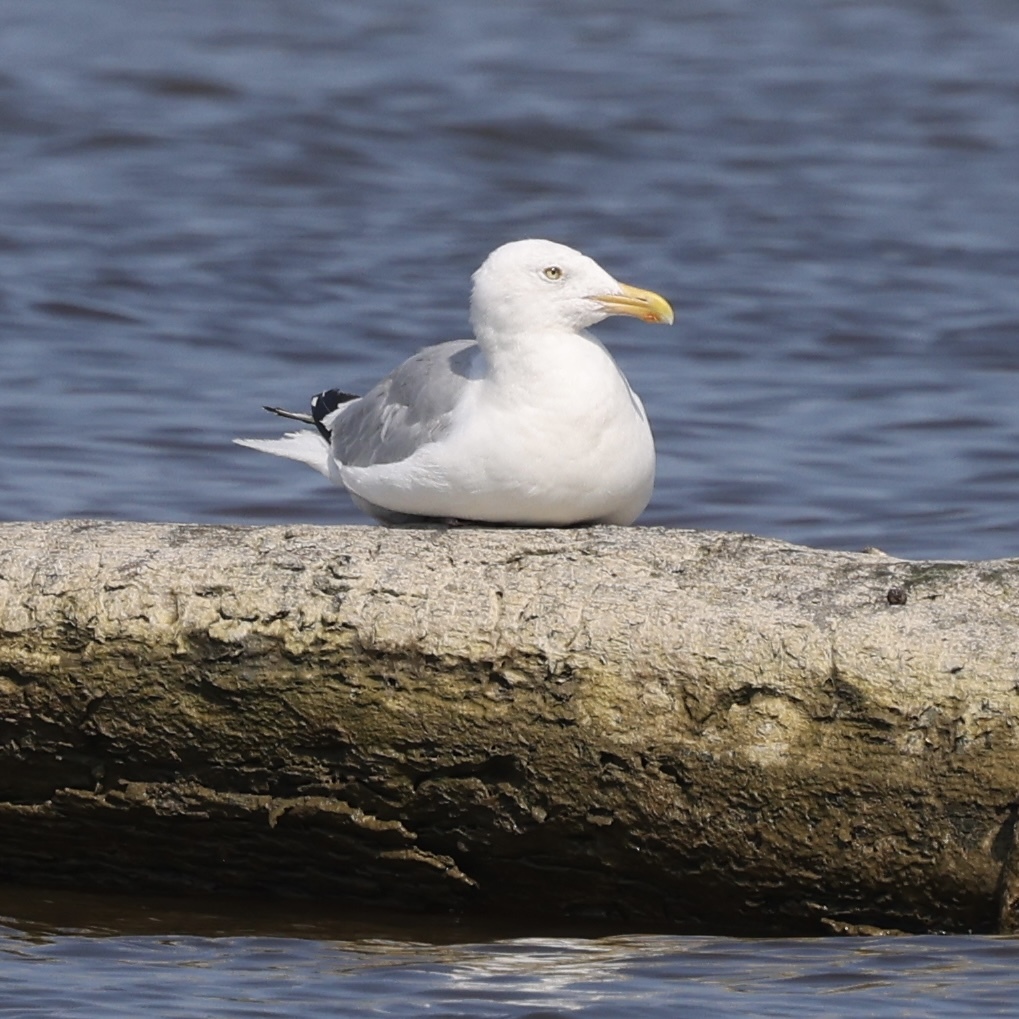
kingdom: Animalia
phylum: Chordata
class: Aves
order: Charadriiformes
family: Laridae
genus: Larus
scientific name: Larus argentatus
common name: Herring gull
